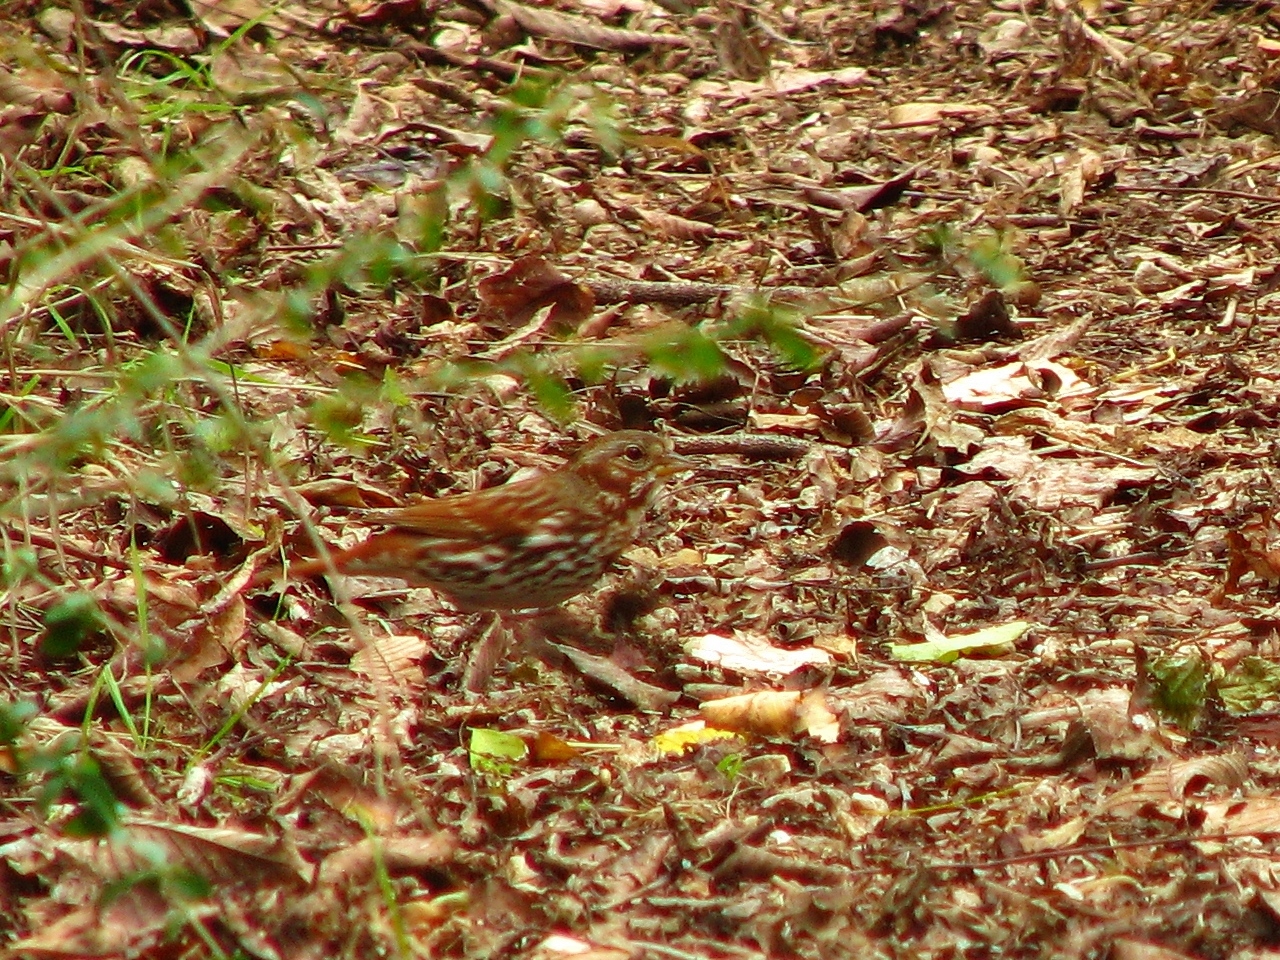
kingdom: Animalia
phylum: Chordata
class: Aves
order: Passeriformes
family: Passerellidae
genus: Passerella
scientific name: Passerella iliaca
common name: Fox sparrow
